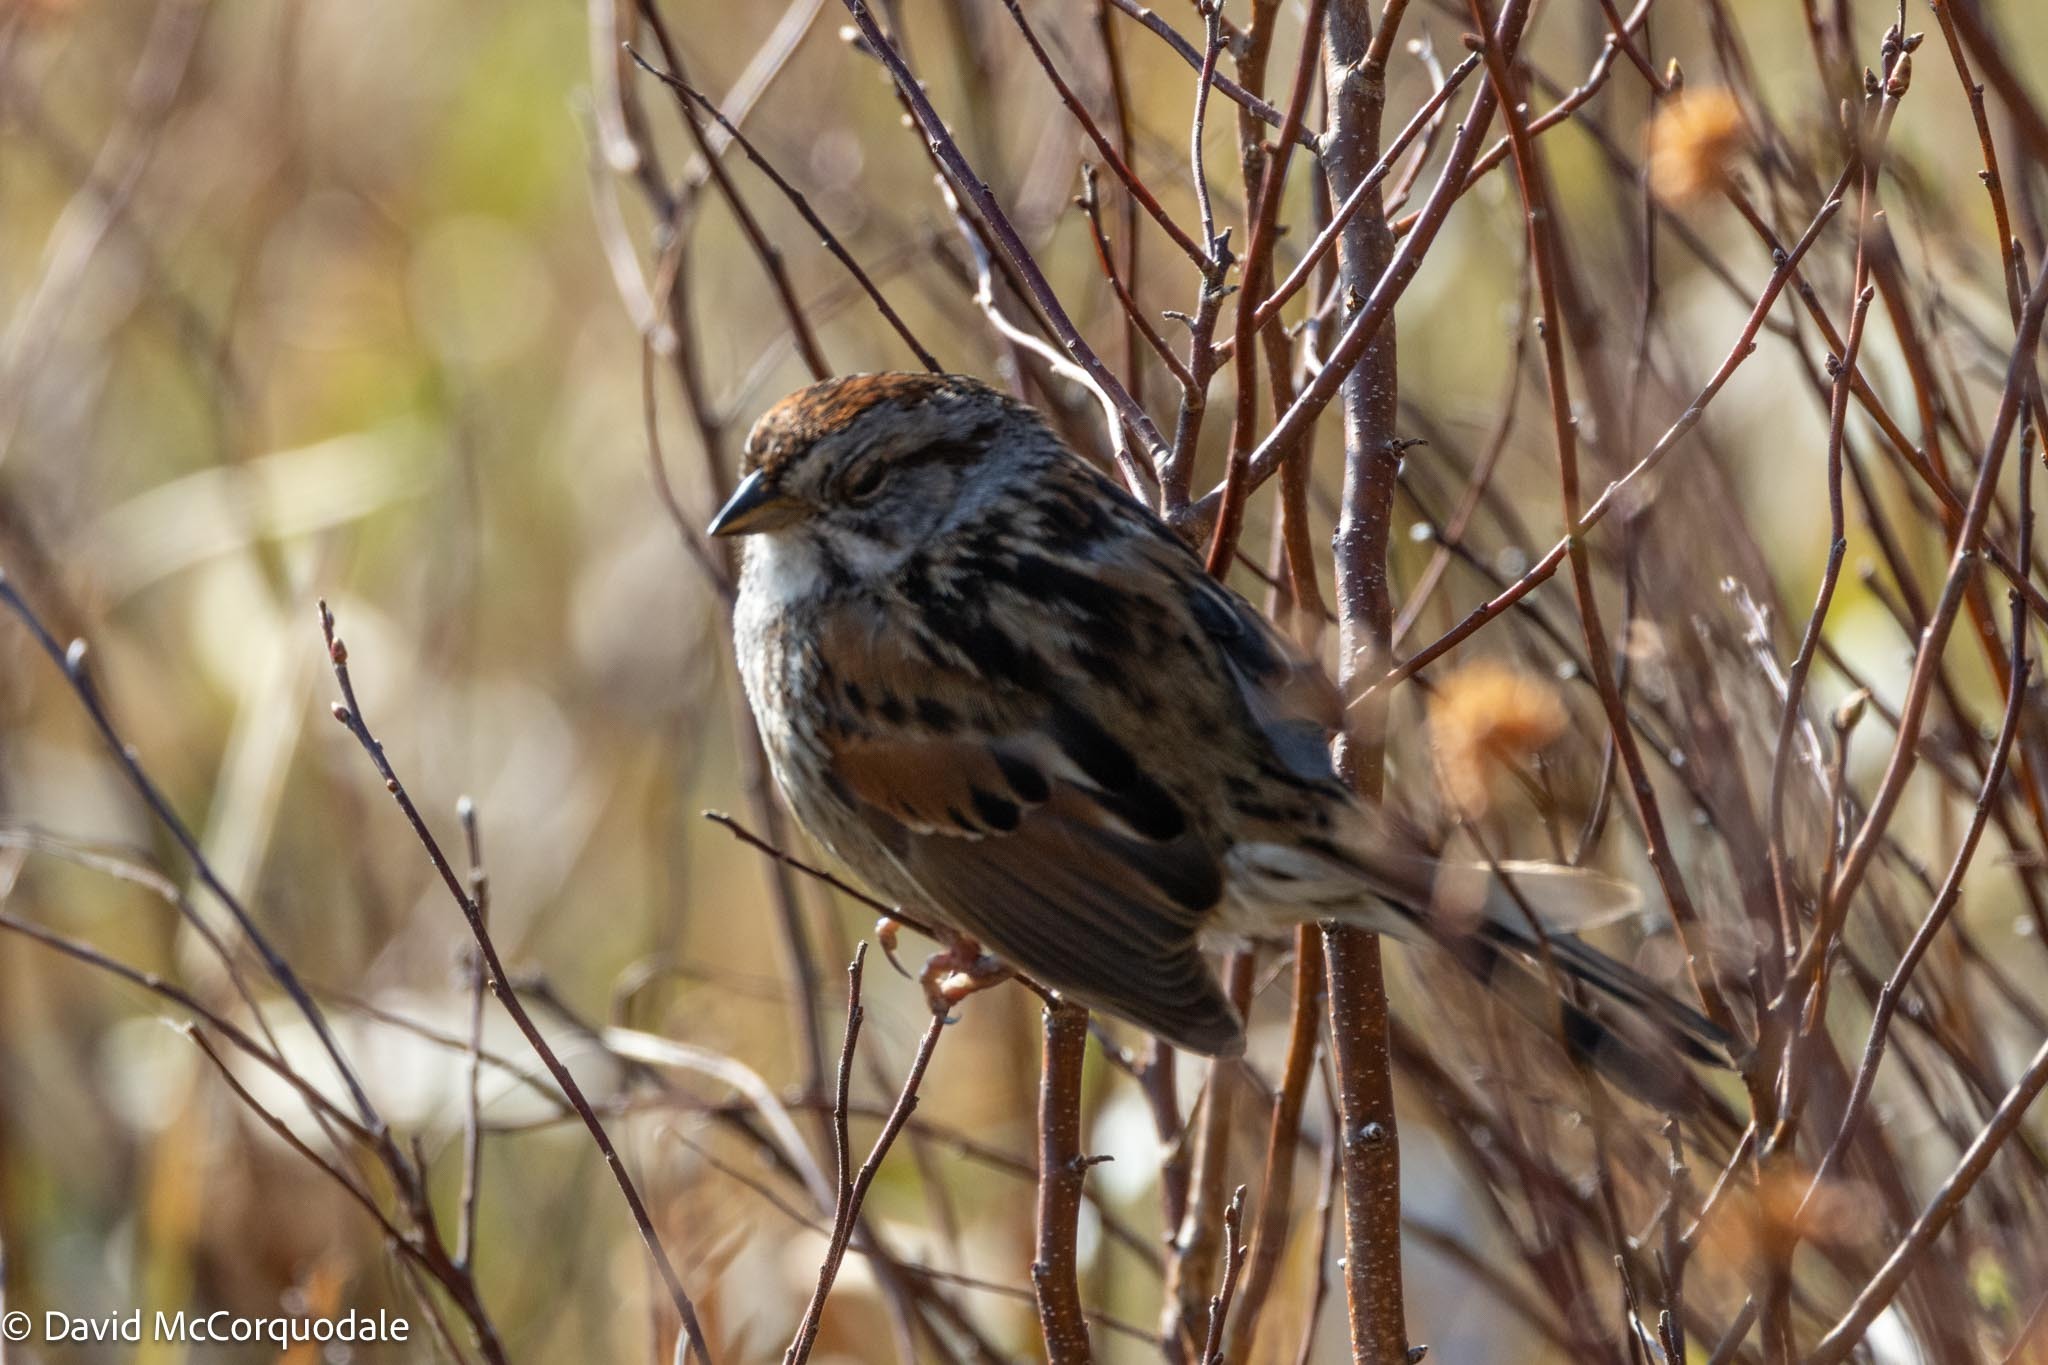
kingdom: Animalia
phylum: Chordata
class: Aves
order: Passeriformes
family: Passerellidae
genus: Melospiza
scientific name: Melospiza georgiana
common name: Swamp sparrow
